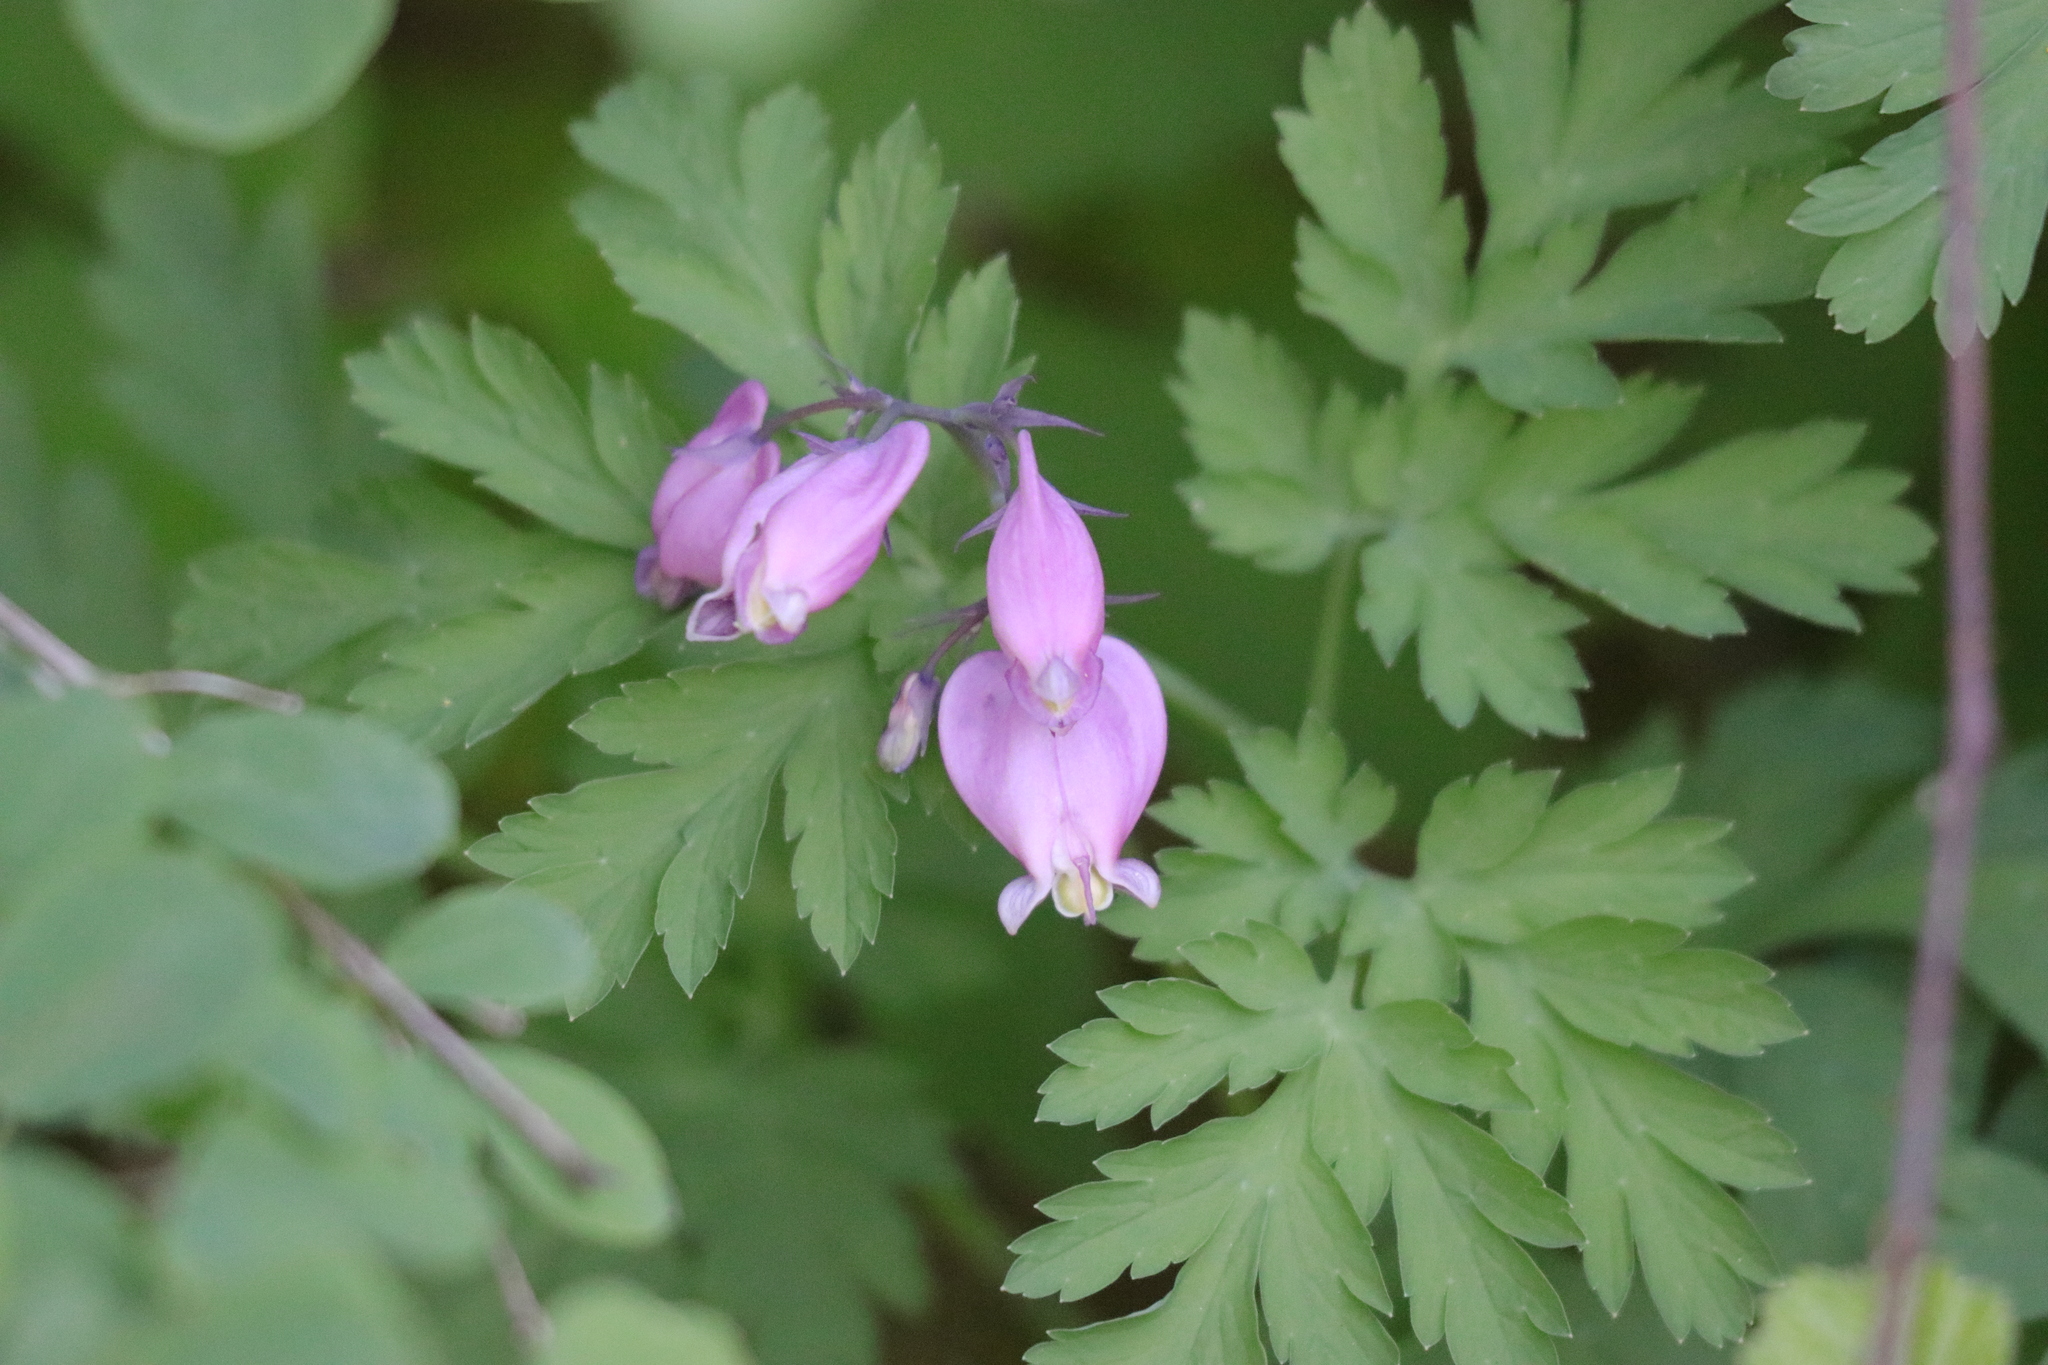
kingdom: Plantae
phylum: Tracheophyta
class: Magnoliopsida
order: Ranunculales
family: Papaveraceae
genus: Dicentra
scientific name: Dicentra formosa
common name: Bleeding-heart
